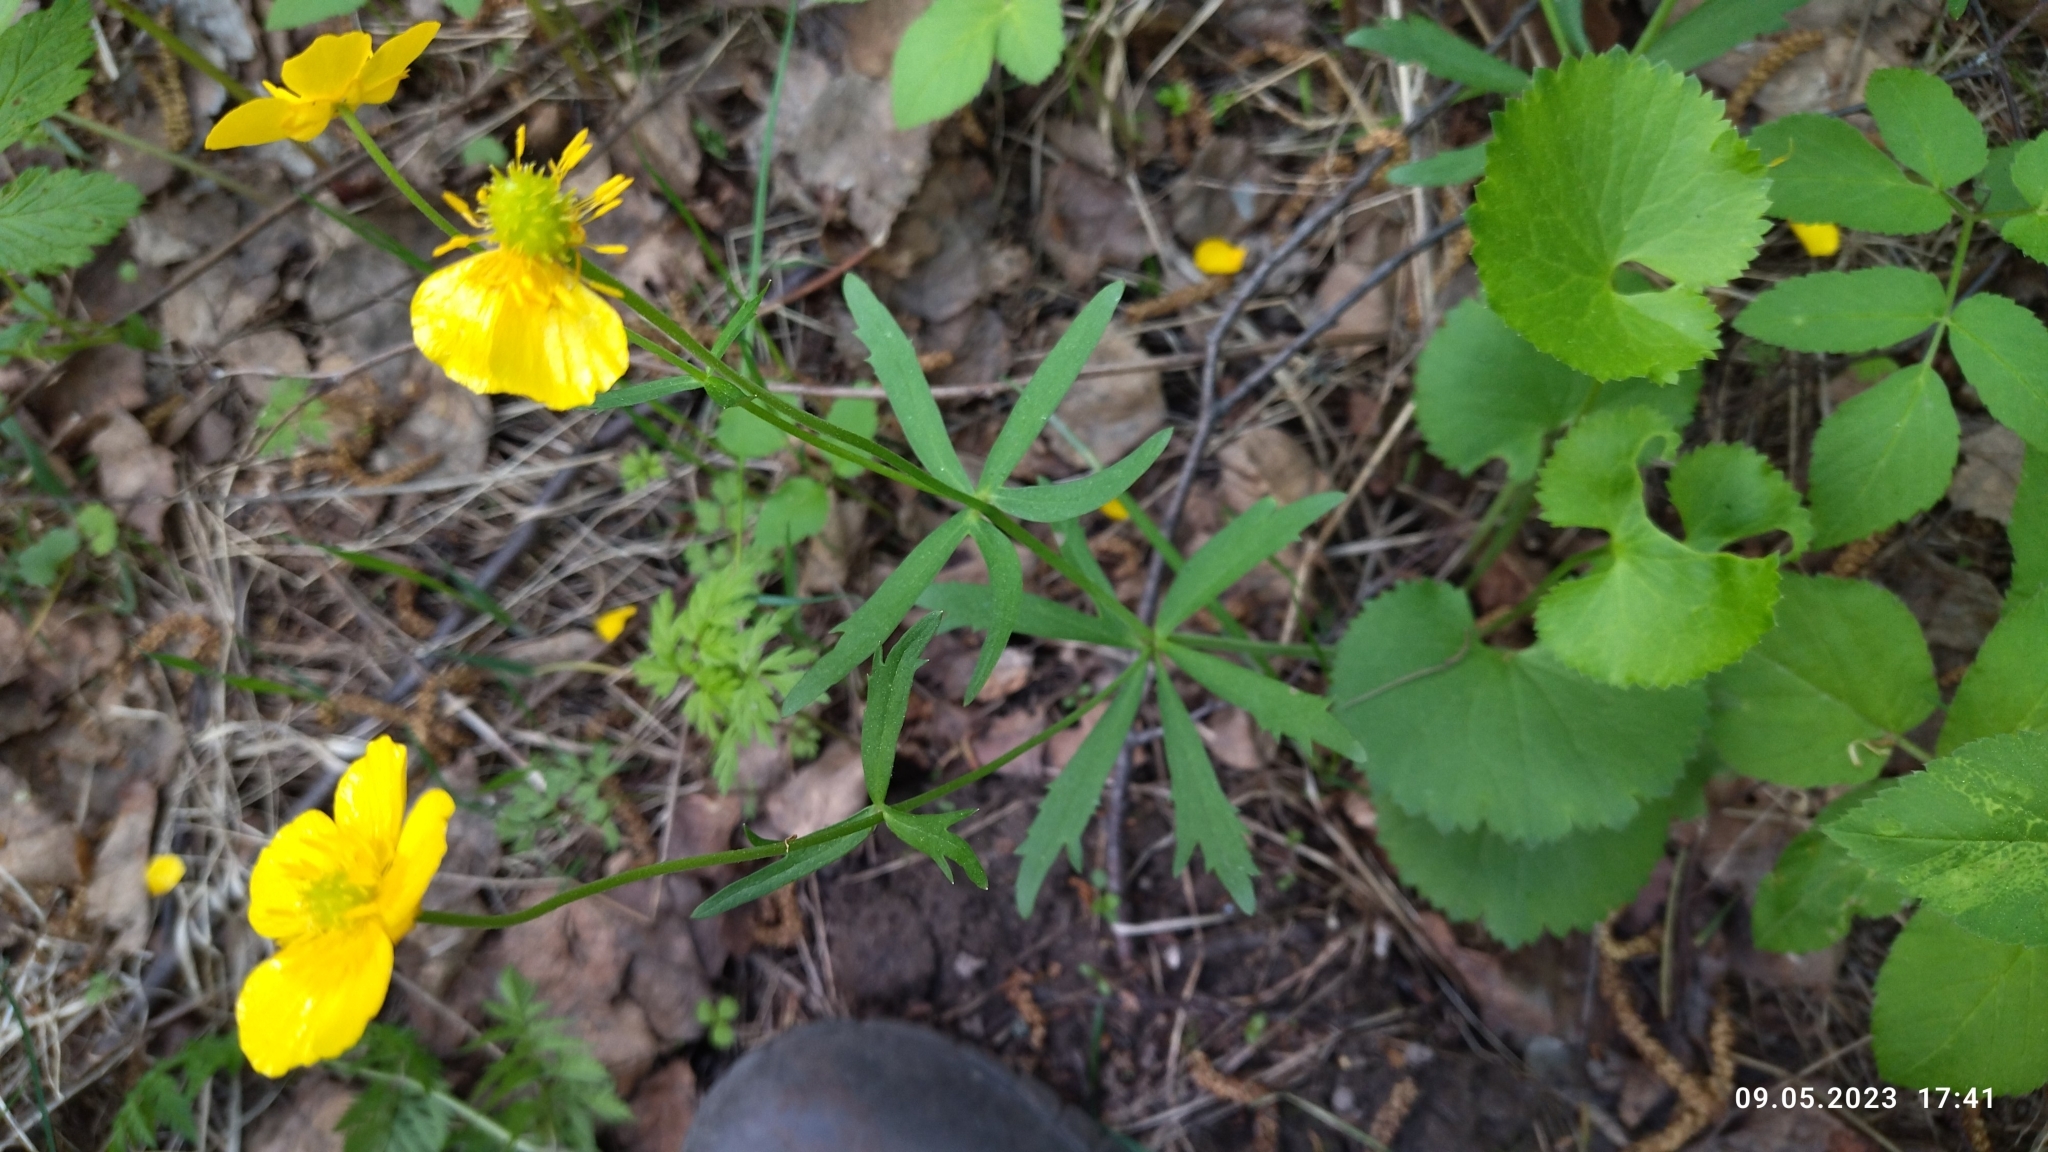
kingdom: Plantae
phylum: Tracheophyta
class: Magnoliopsida
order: Ranunculales
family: Ranunculaceae
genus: Ranunculus
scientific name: Ranunculus cassubicus
